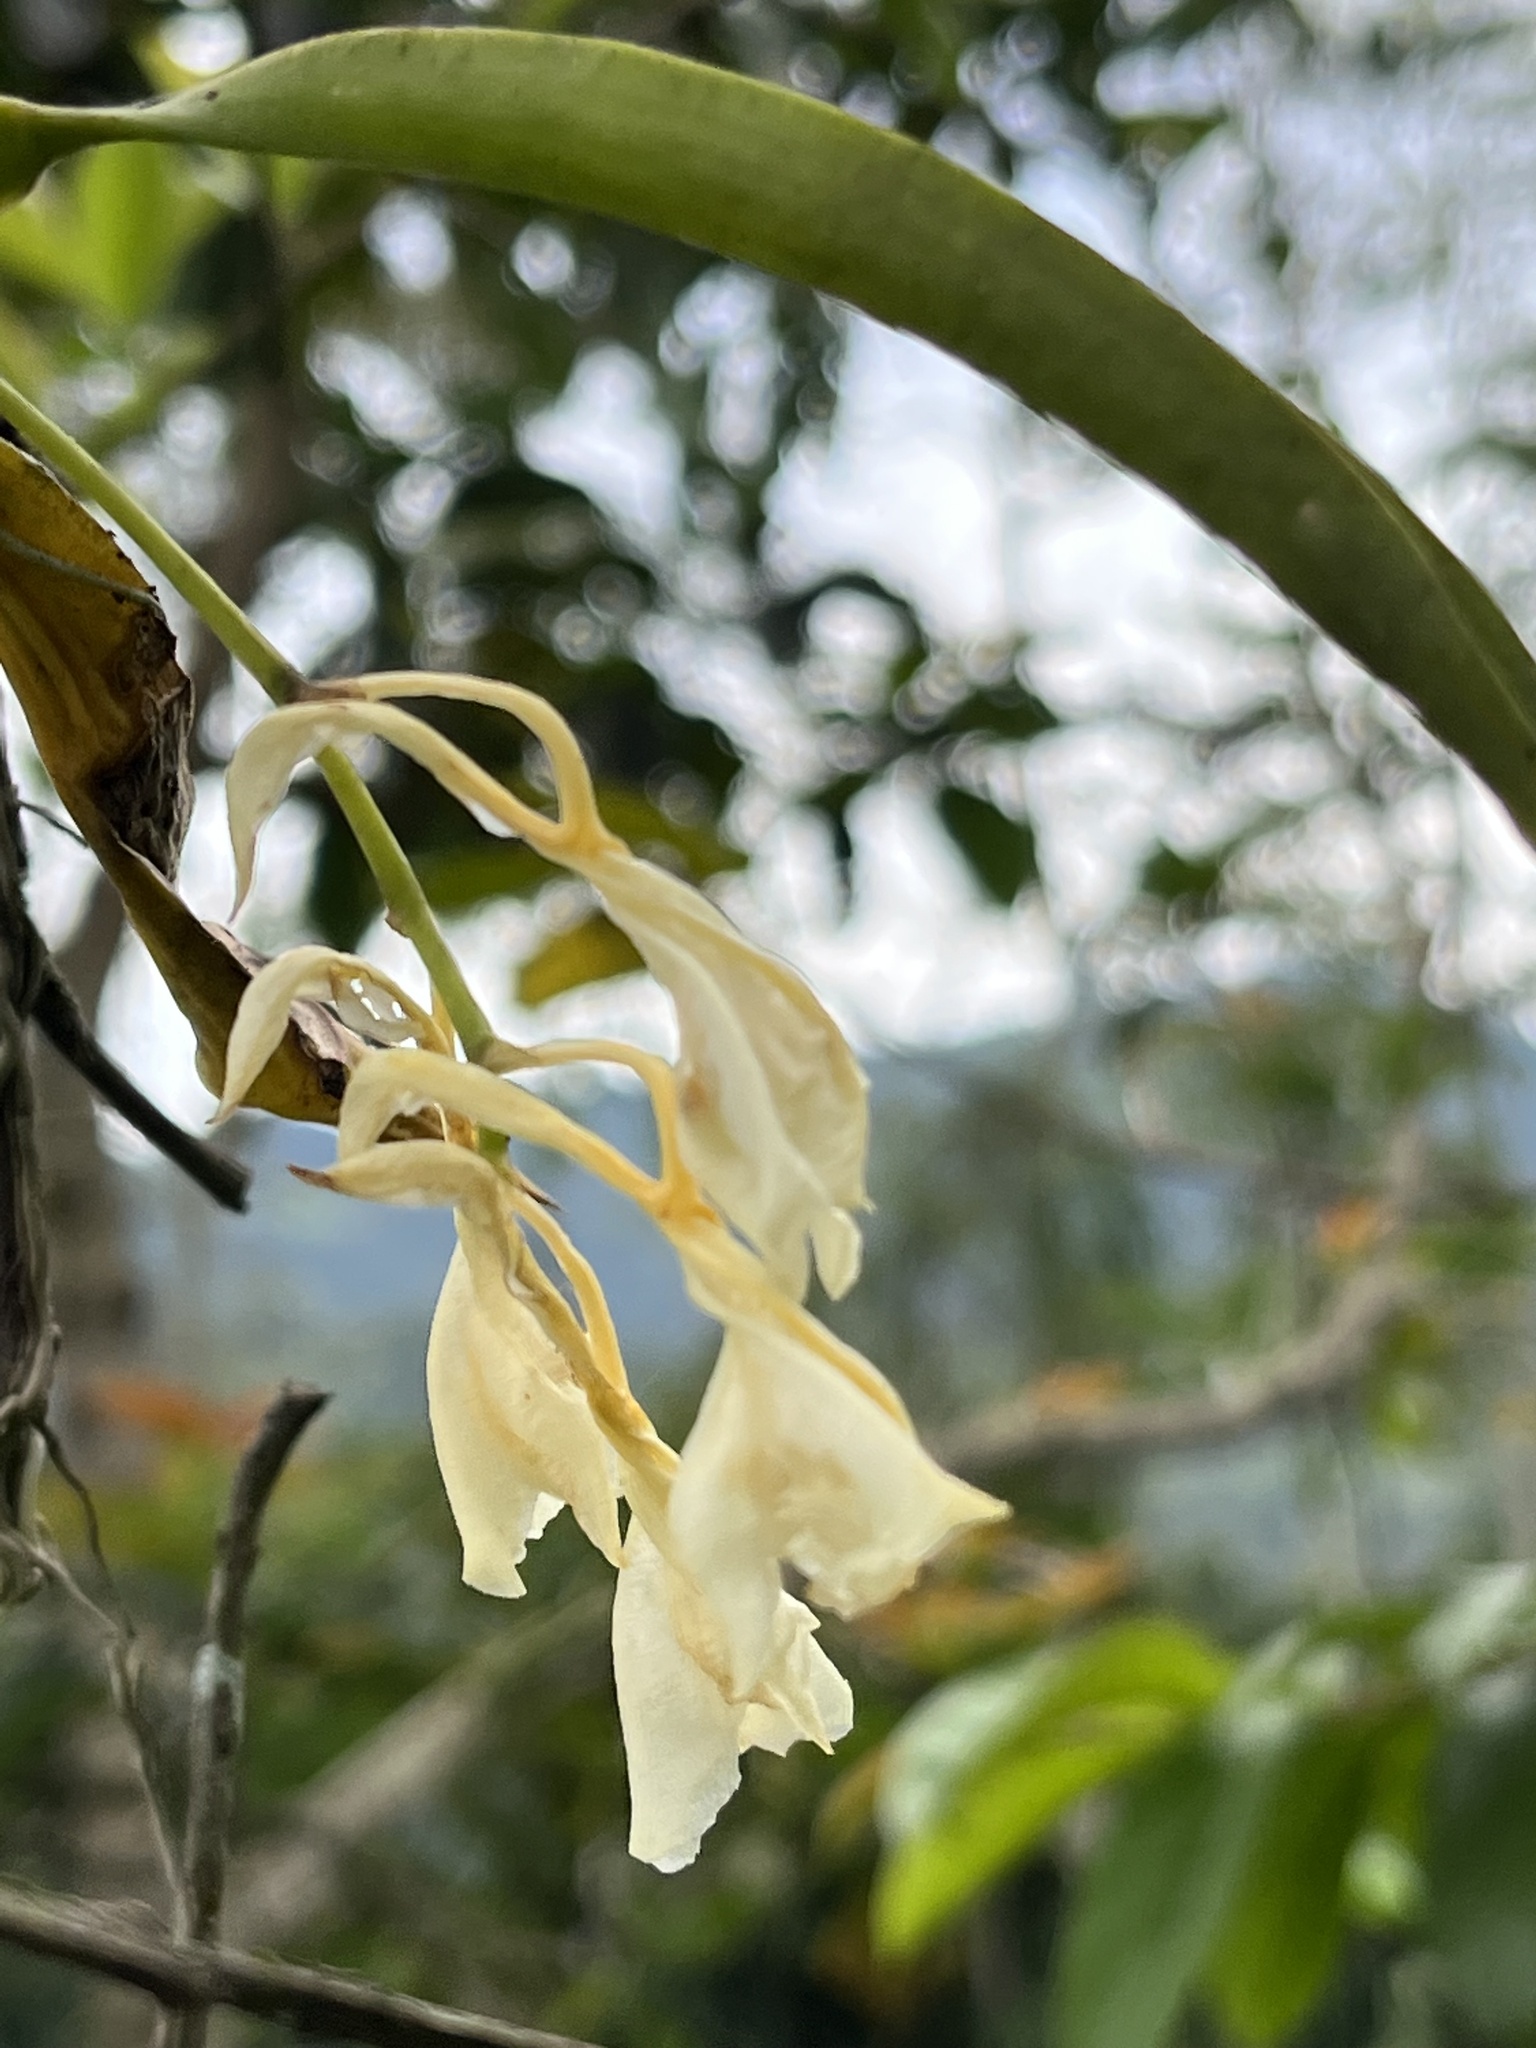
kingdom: Plantae
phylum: Tracheophyta
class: Liliopsida
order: Asparagales
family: Orchidaceae
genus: Rodriguezia
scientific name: Rodriguezia granadensis
